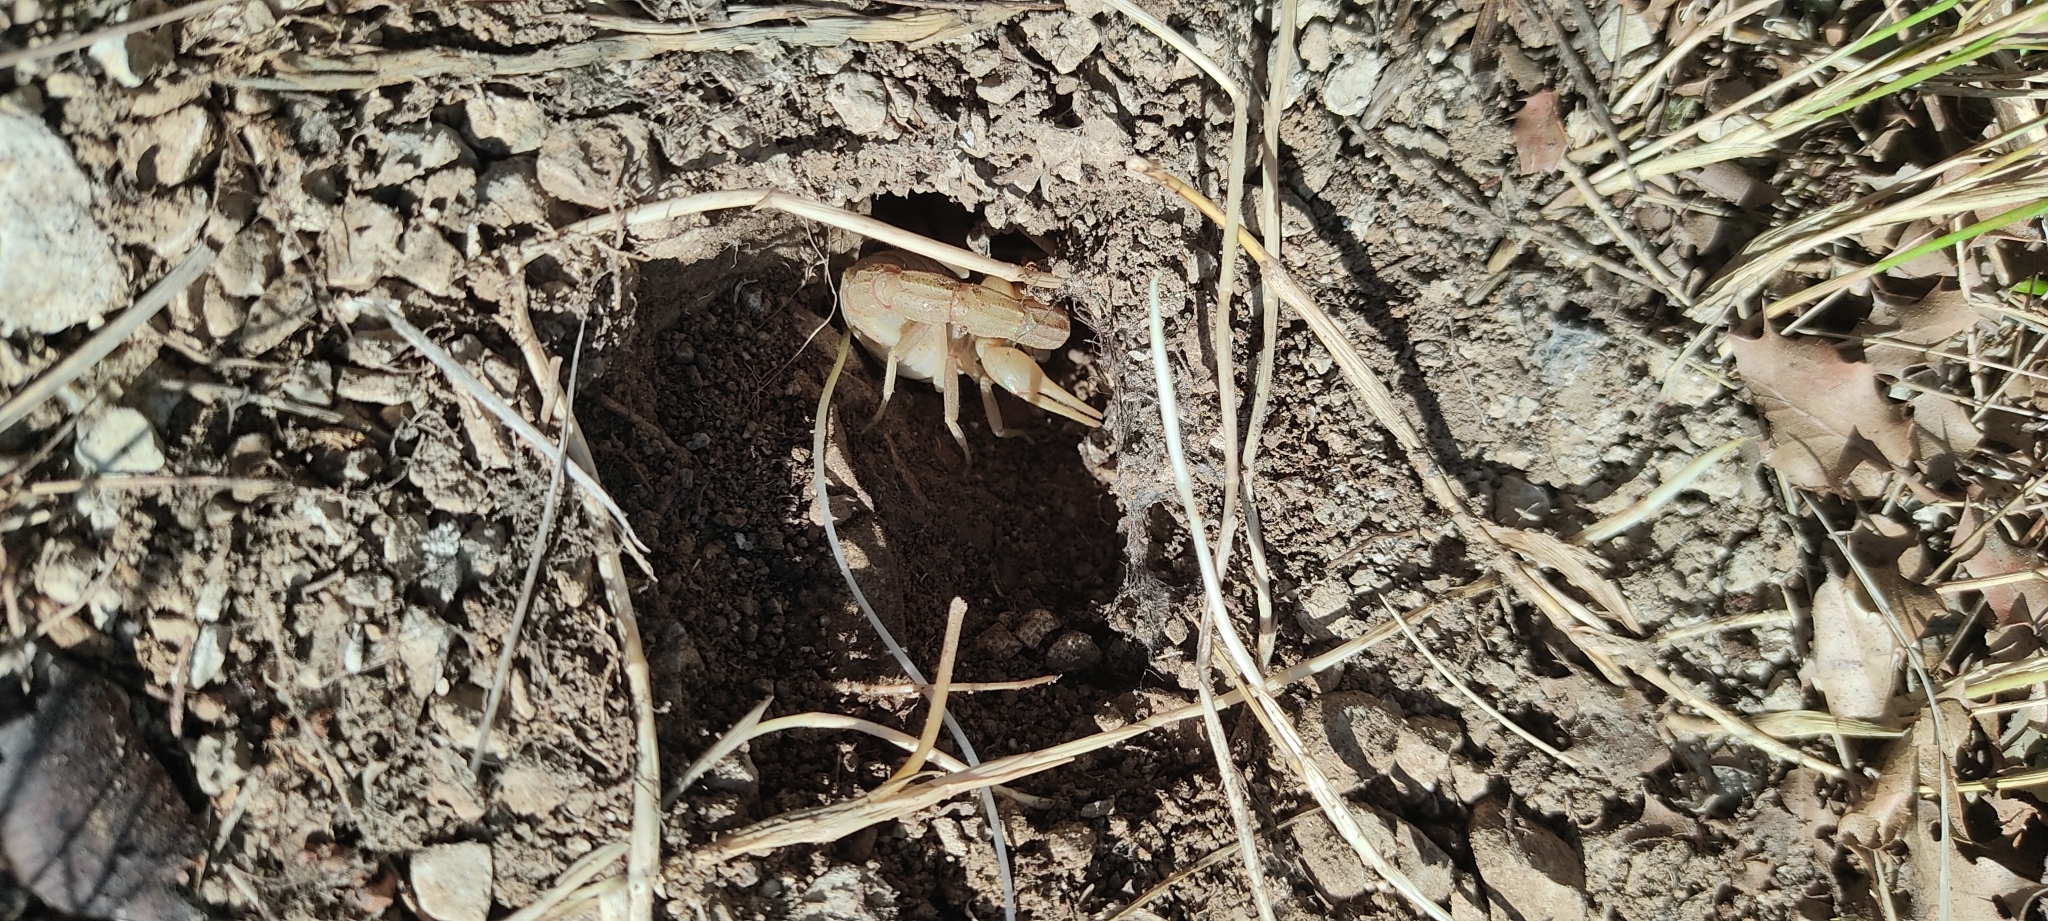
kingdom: Animalia
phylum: Arthropoda
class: Arachnida
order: Scorpiones
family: Buthidae
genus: Buthus
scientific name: Buthus occitanus
